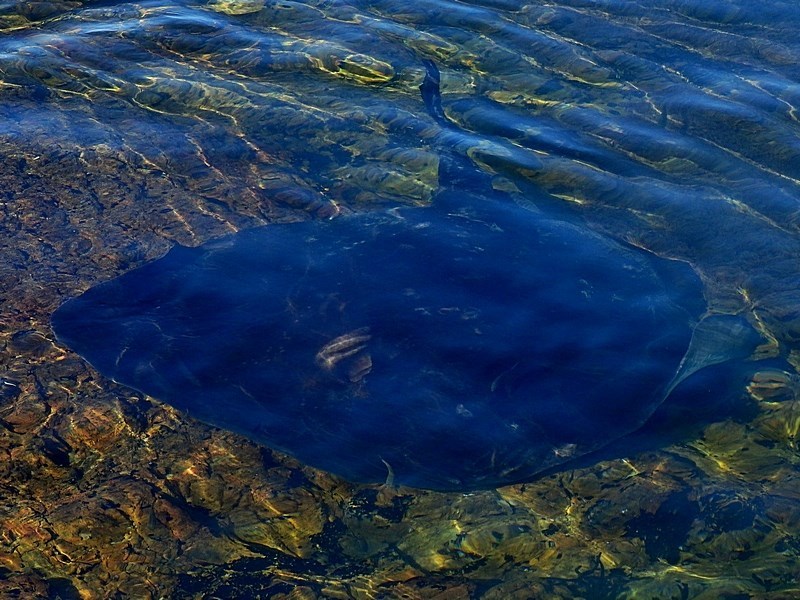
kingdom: Animalia
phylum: Chordata
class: Elasmobranchii
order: Myliobatiformes
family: Dasyatidae
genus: Bathytoshia
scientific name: Bathytoshia brevicaudata
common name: Short-tail stingray
